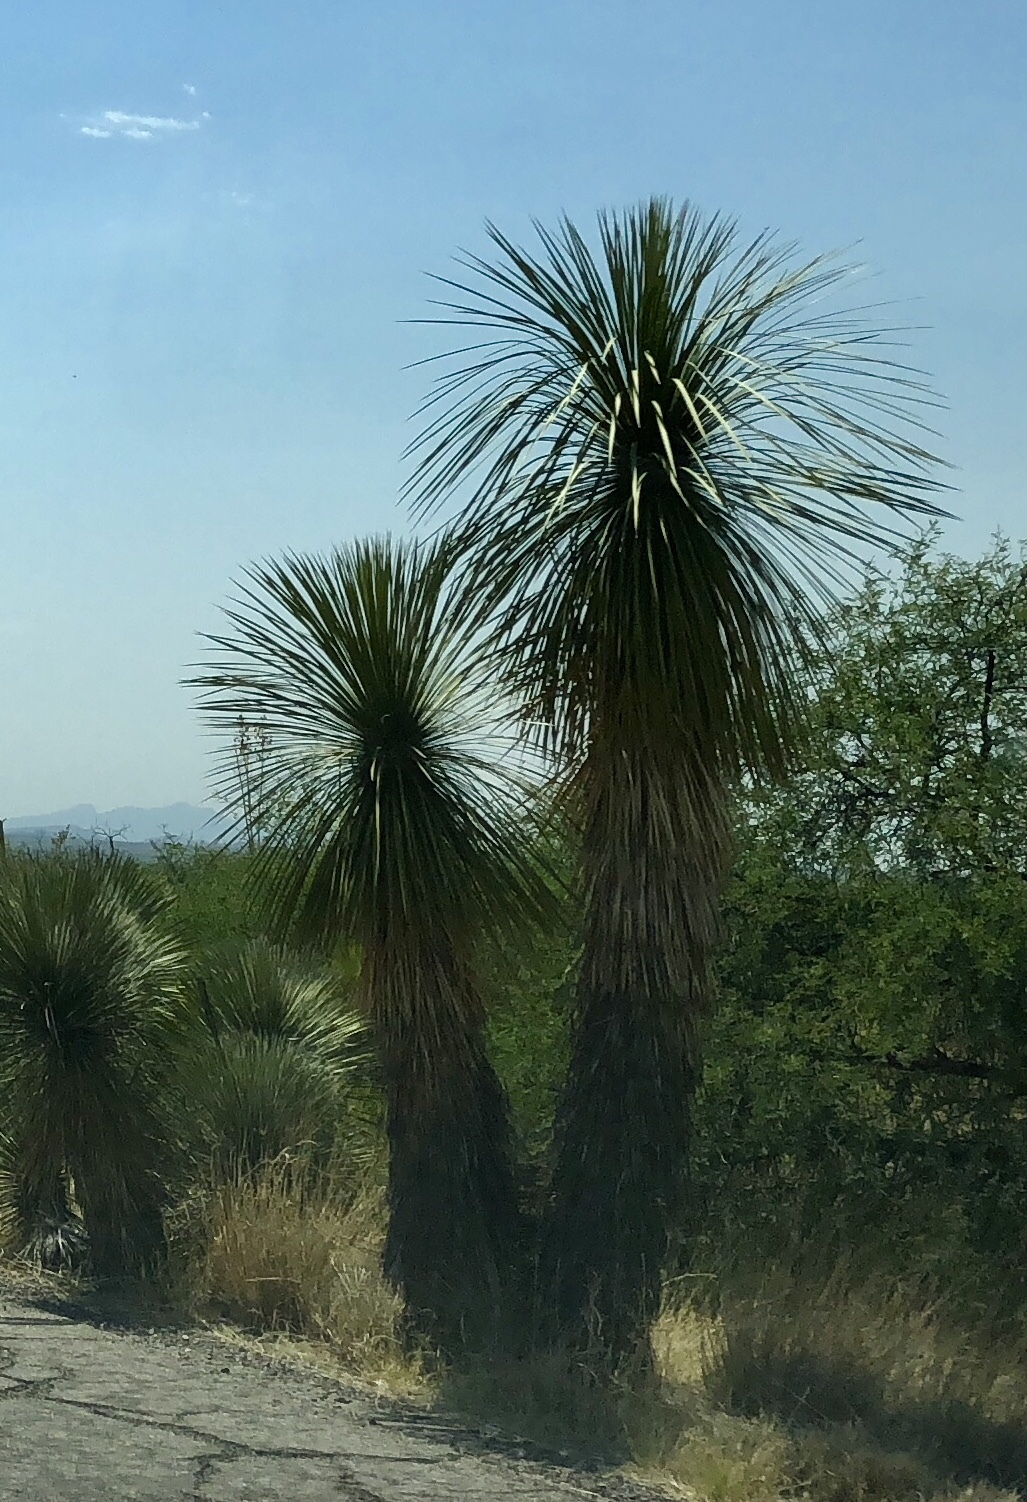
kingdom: Plantae
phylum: Tracheophyta
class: Liliopsida
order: Asparagales
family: Asparagaceae
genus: Yucca
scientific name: Yucca elata
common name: Palmella
